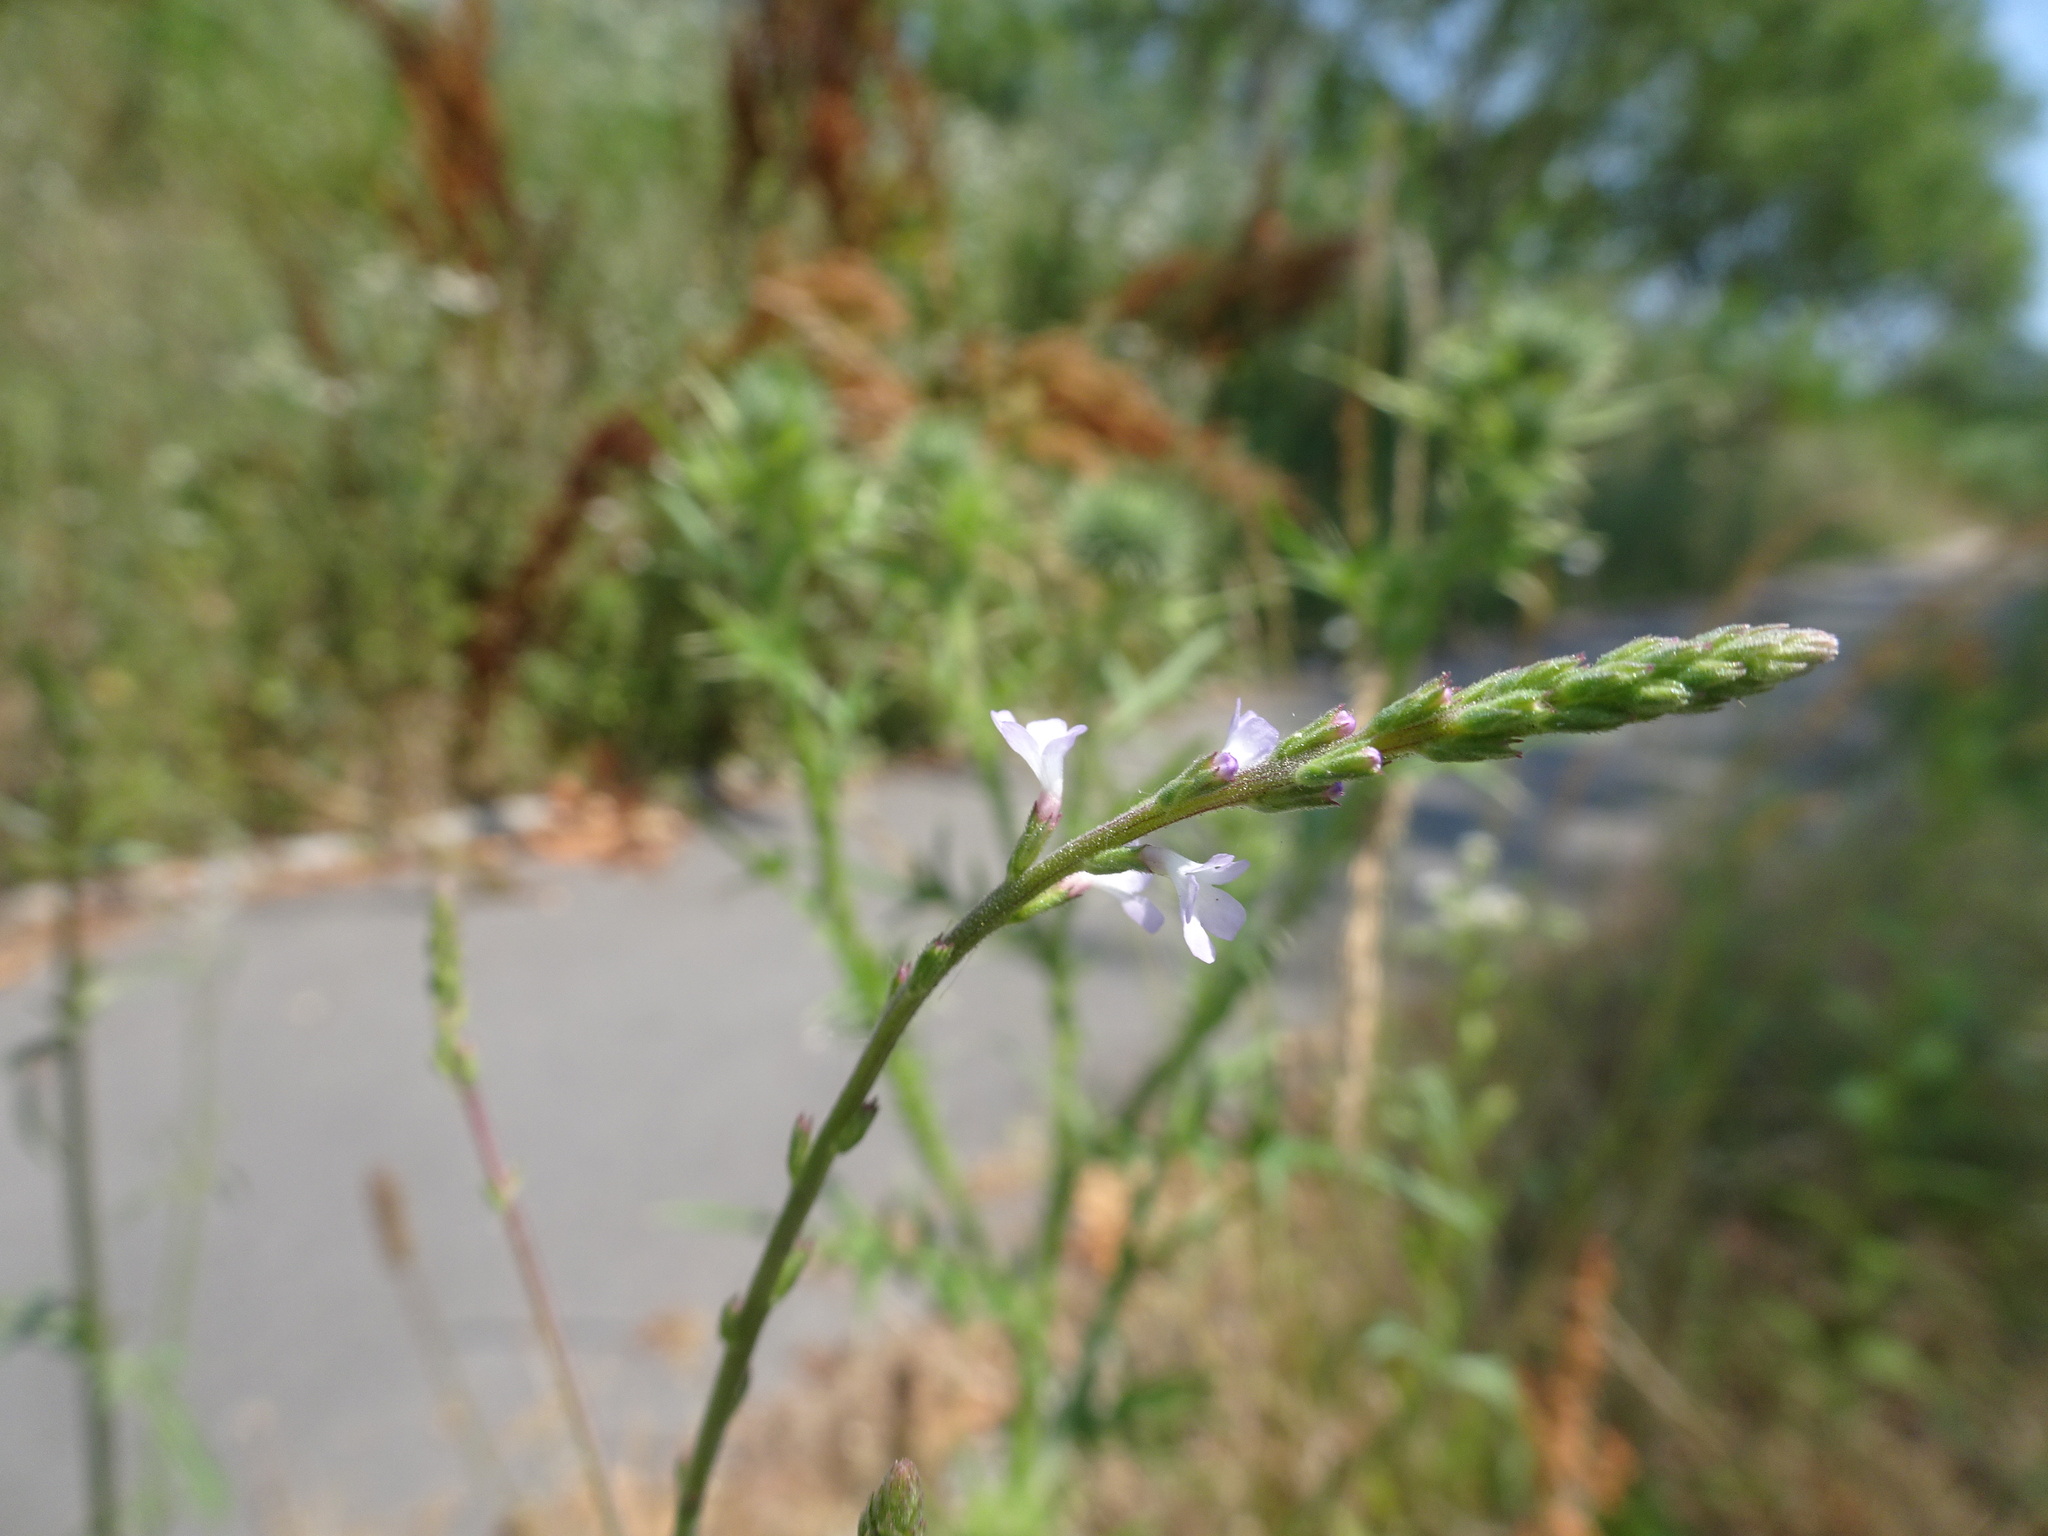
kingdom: Plantae
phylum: Tracheophyta
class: Magnoliopsida
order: Lamiales
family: Verbenaceae
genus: Verbena
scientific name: Verbena officinalis
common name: Vervain
